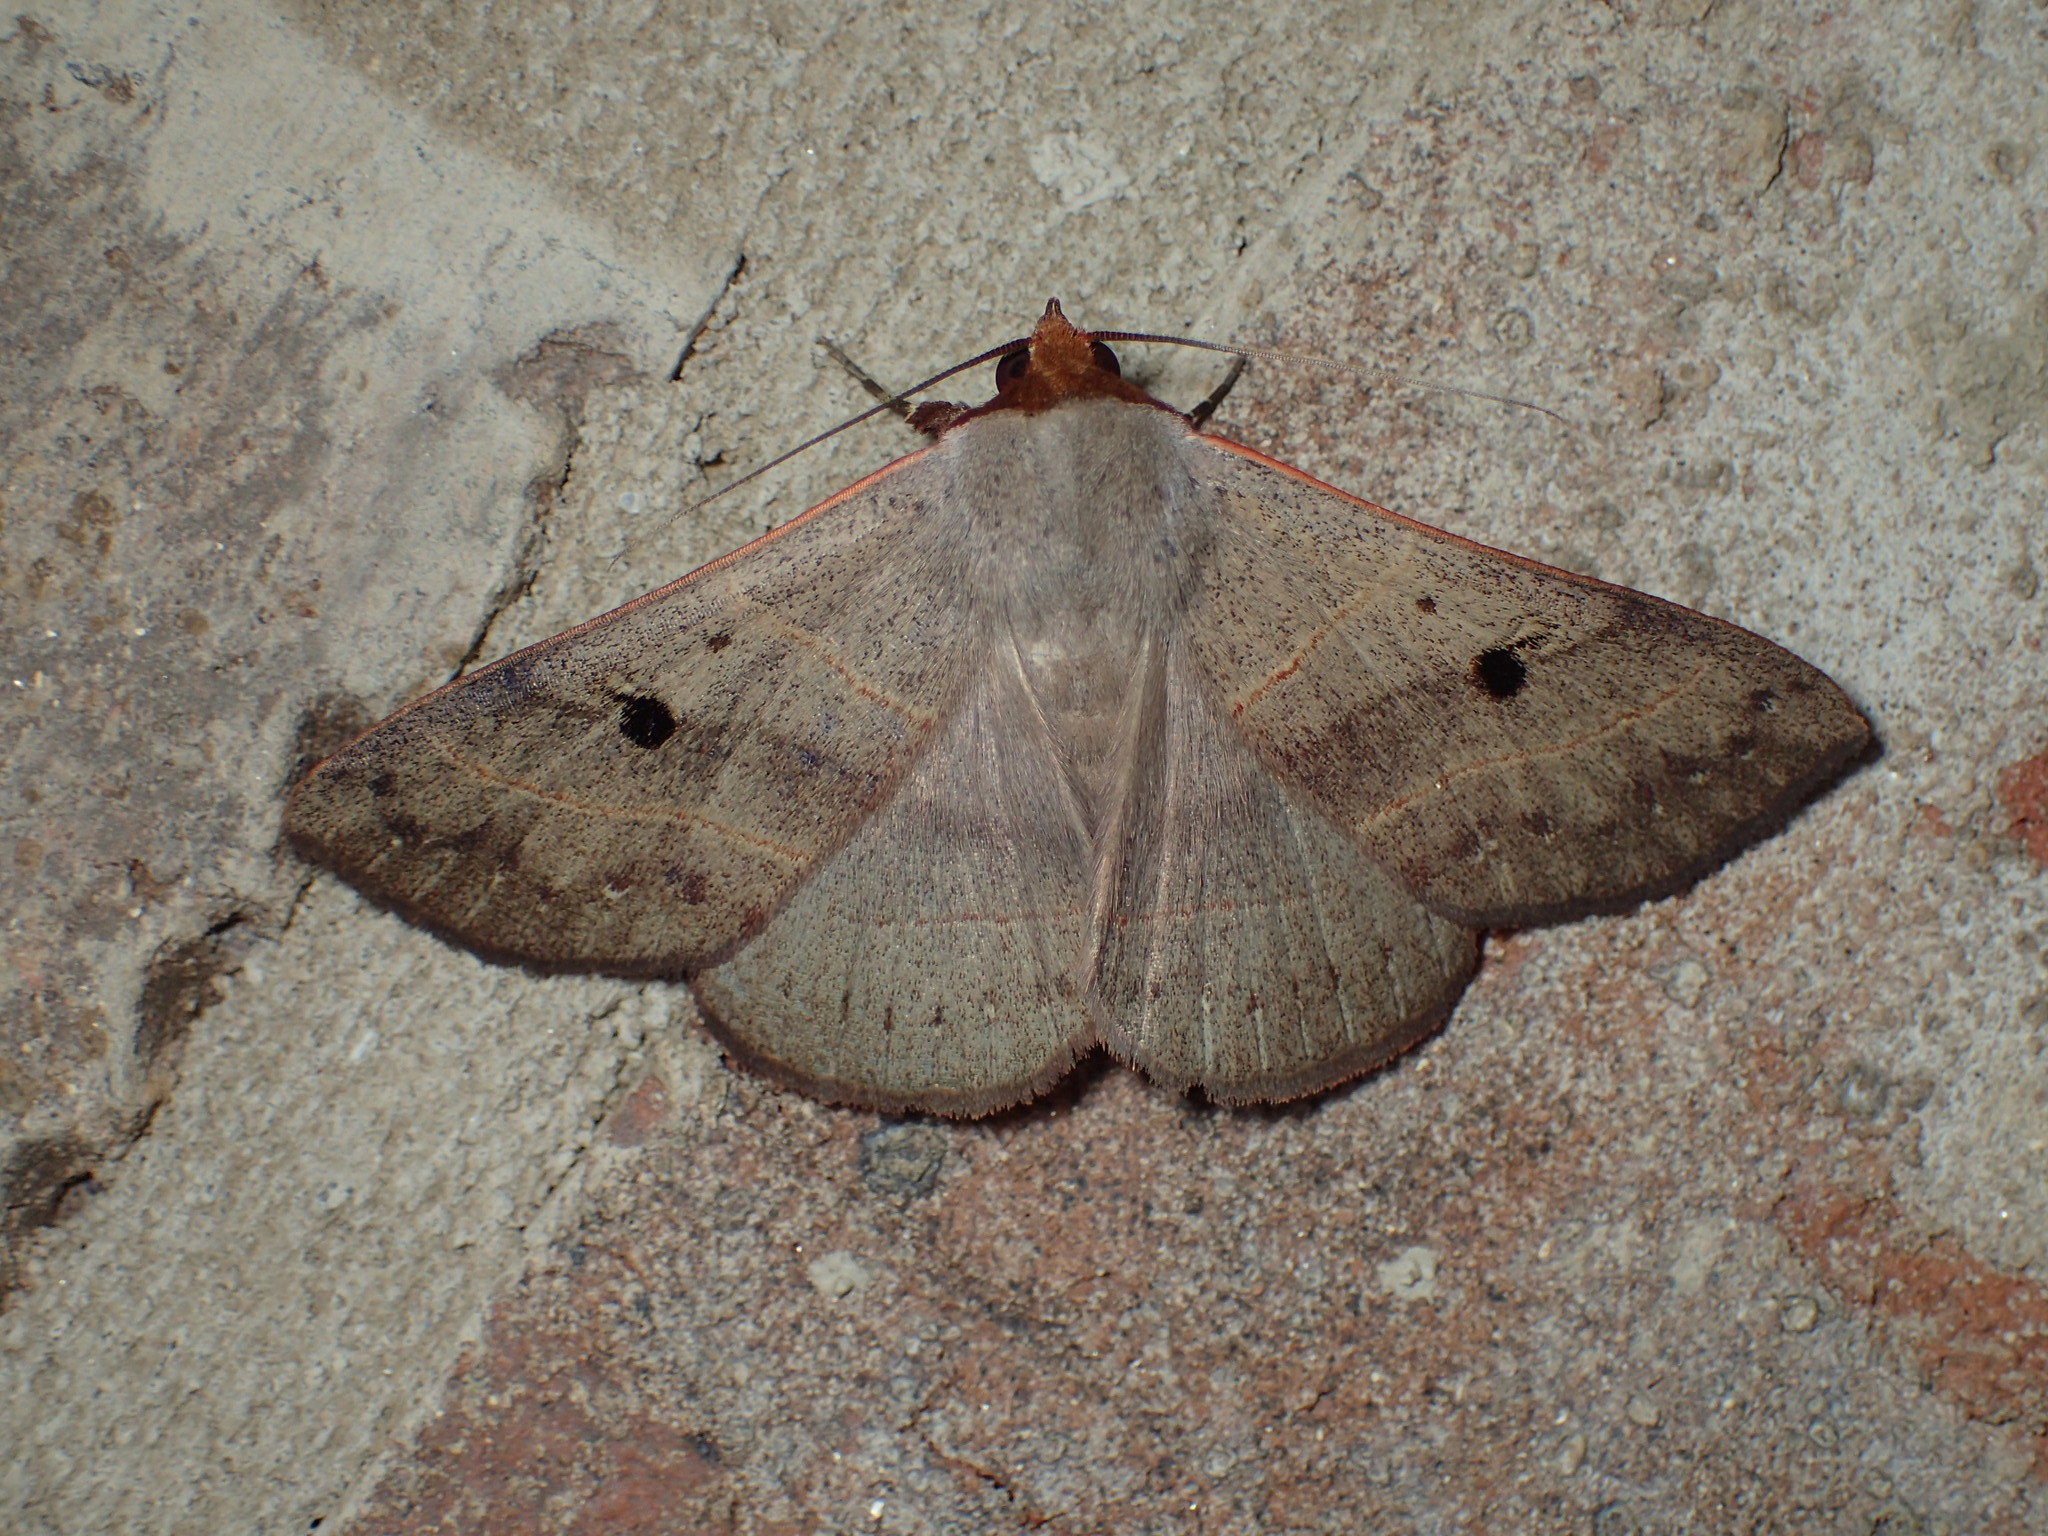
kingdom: Animalia
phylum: Arthropoda
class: Insecta
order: Lepidoptera
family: Erebidae
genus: Panopoda
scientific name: Panopoda carneicosta
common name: Brown panopoda moth
